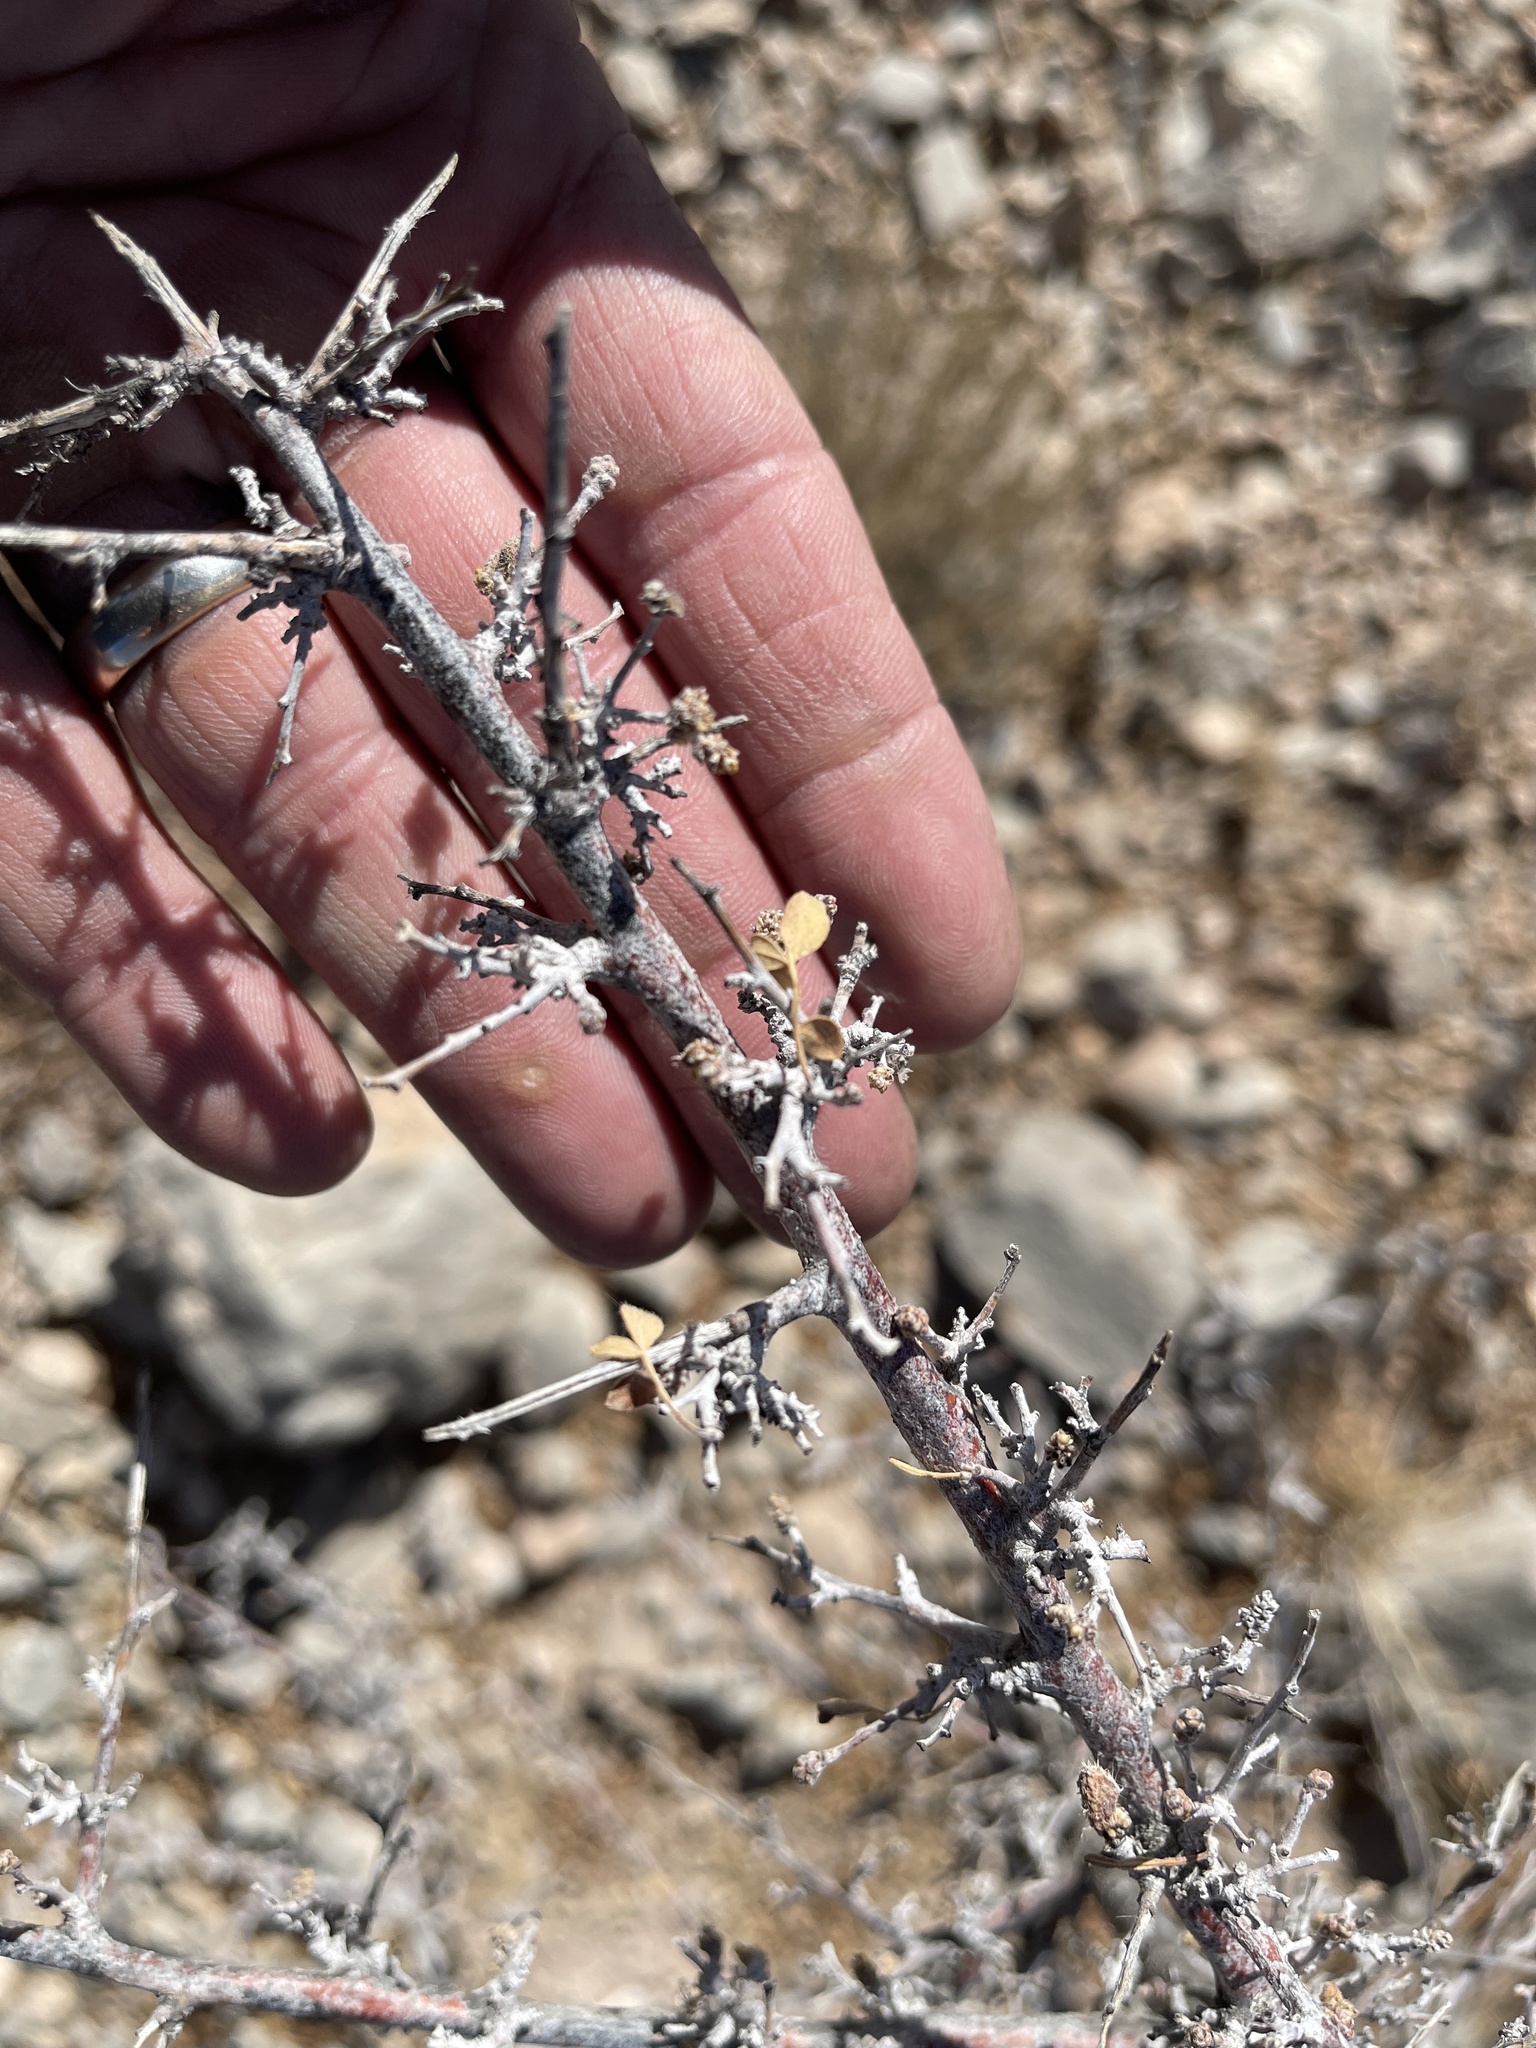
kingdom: Plantae
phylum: Tracheophyta
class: Magnoliopsida
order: Sapindales
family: Anacardiaceae
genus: Rhus
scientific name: Rhus microphylla
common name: Desert sumac
